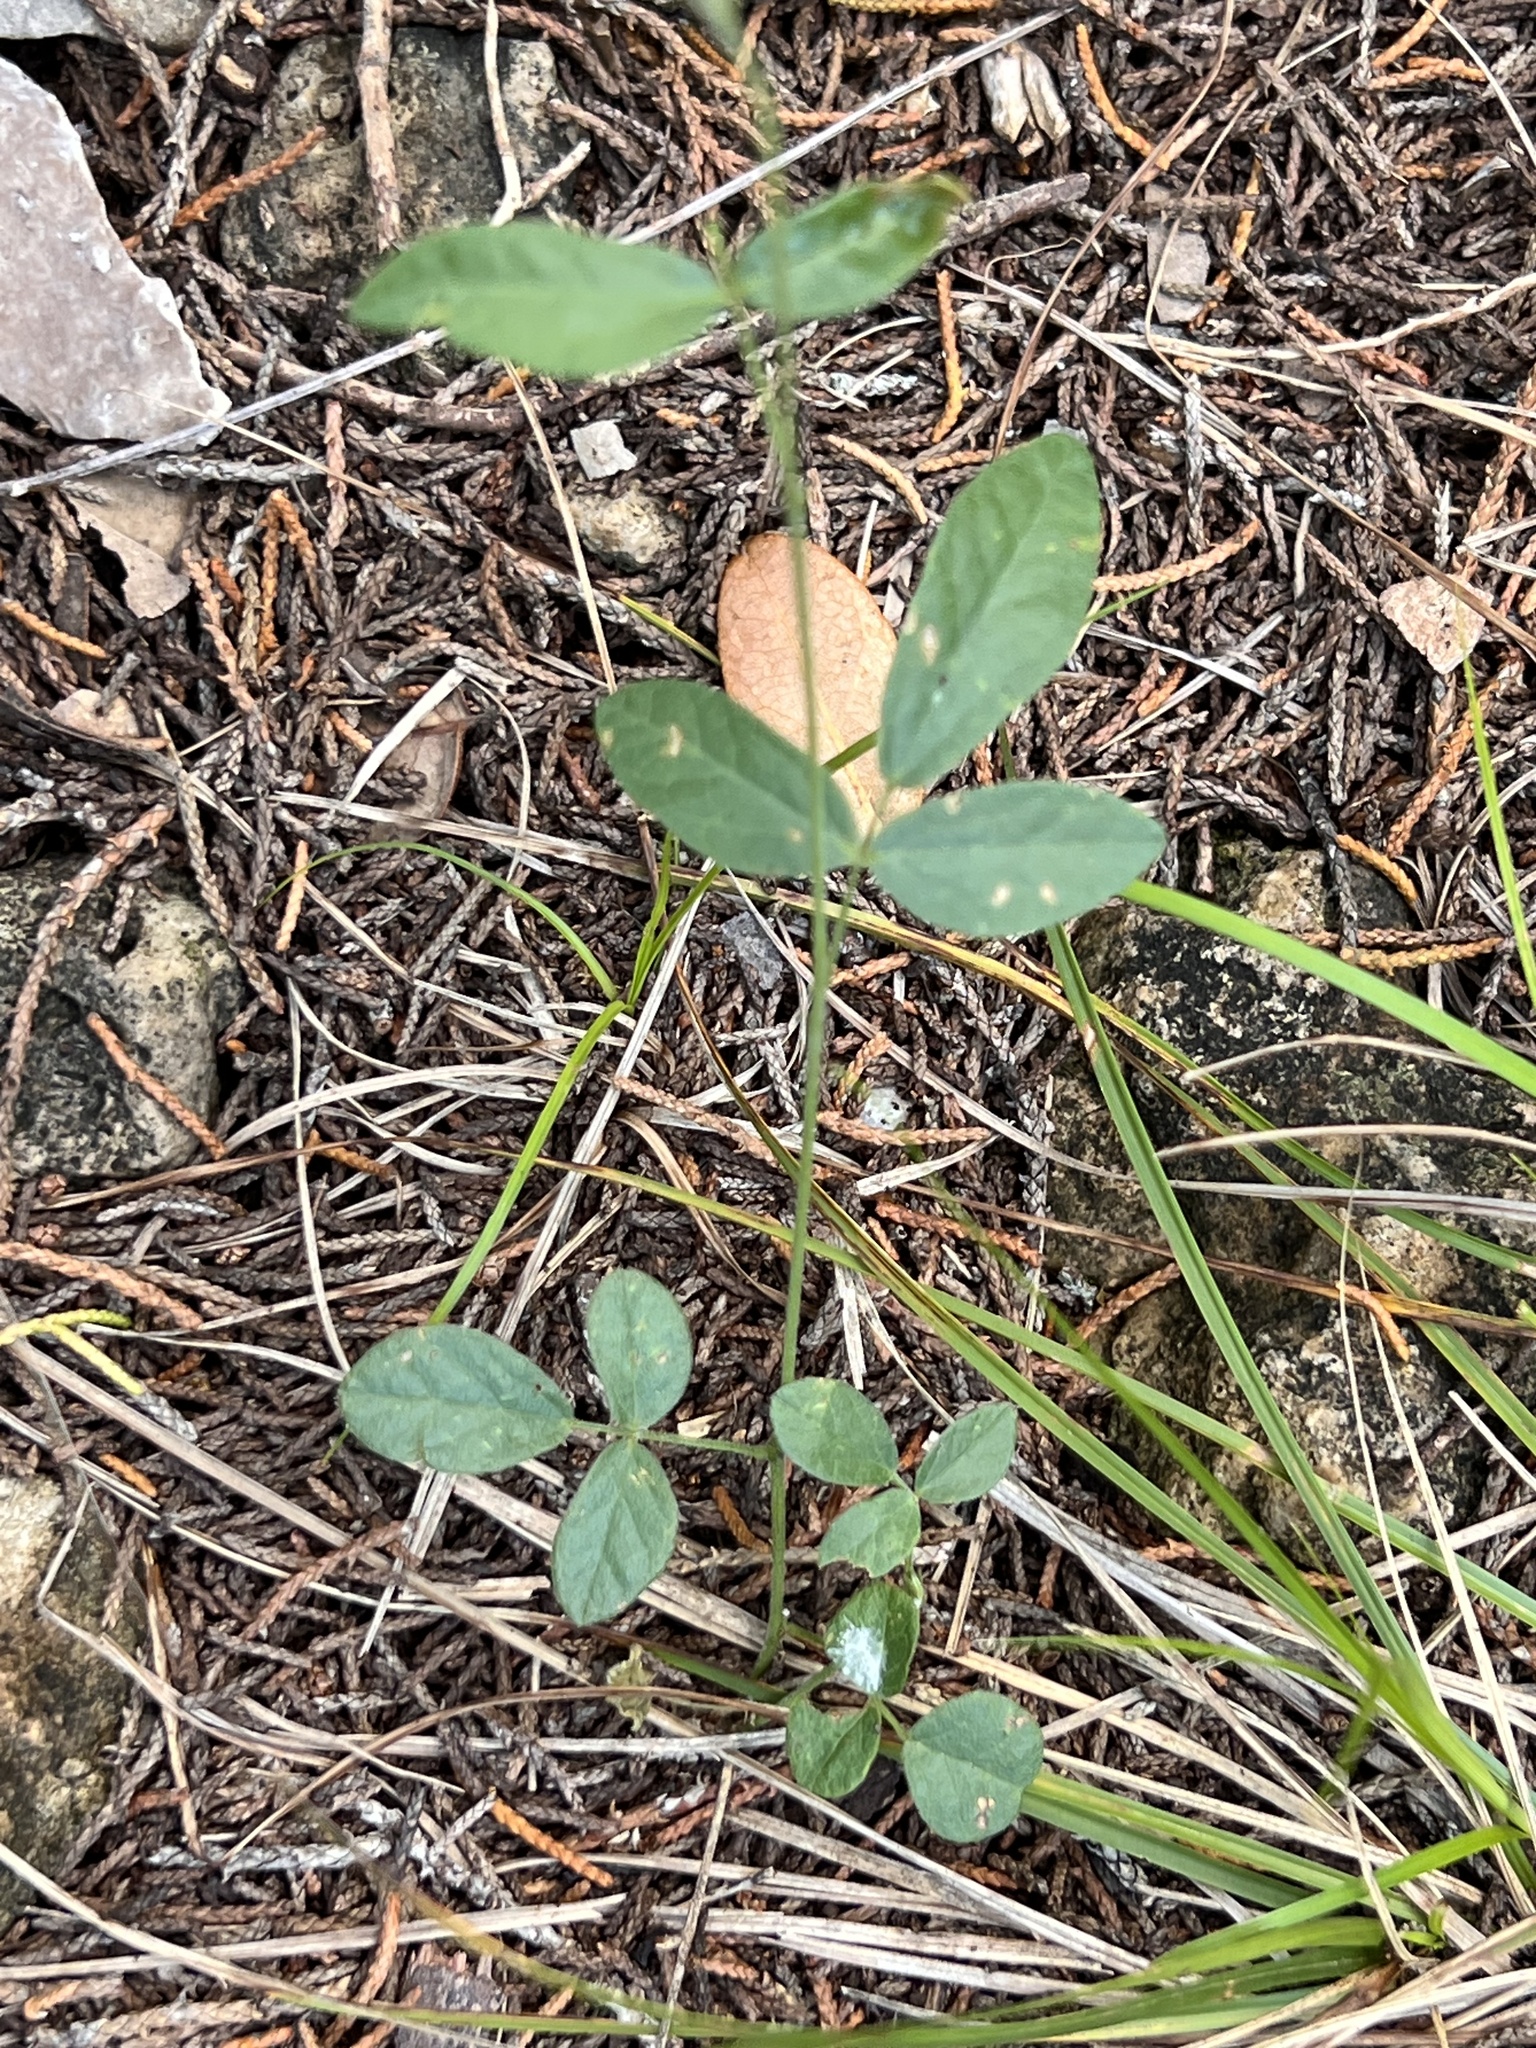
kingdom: Plantae
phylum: Tracheophyta
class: Magnoliopsida
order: Fabales
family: Fabaceae
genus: Rhynchosia
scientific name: Rhynchosia senna
